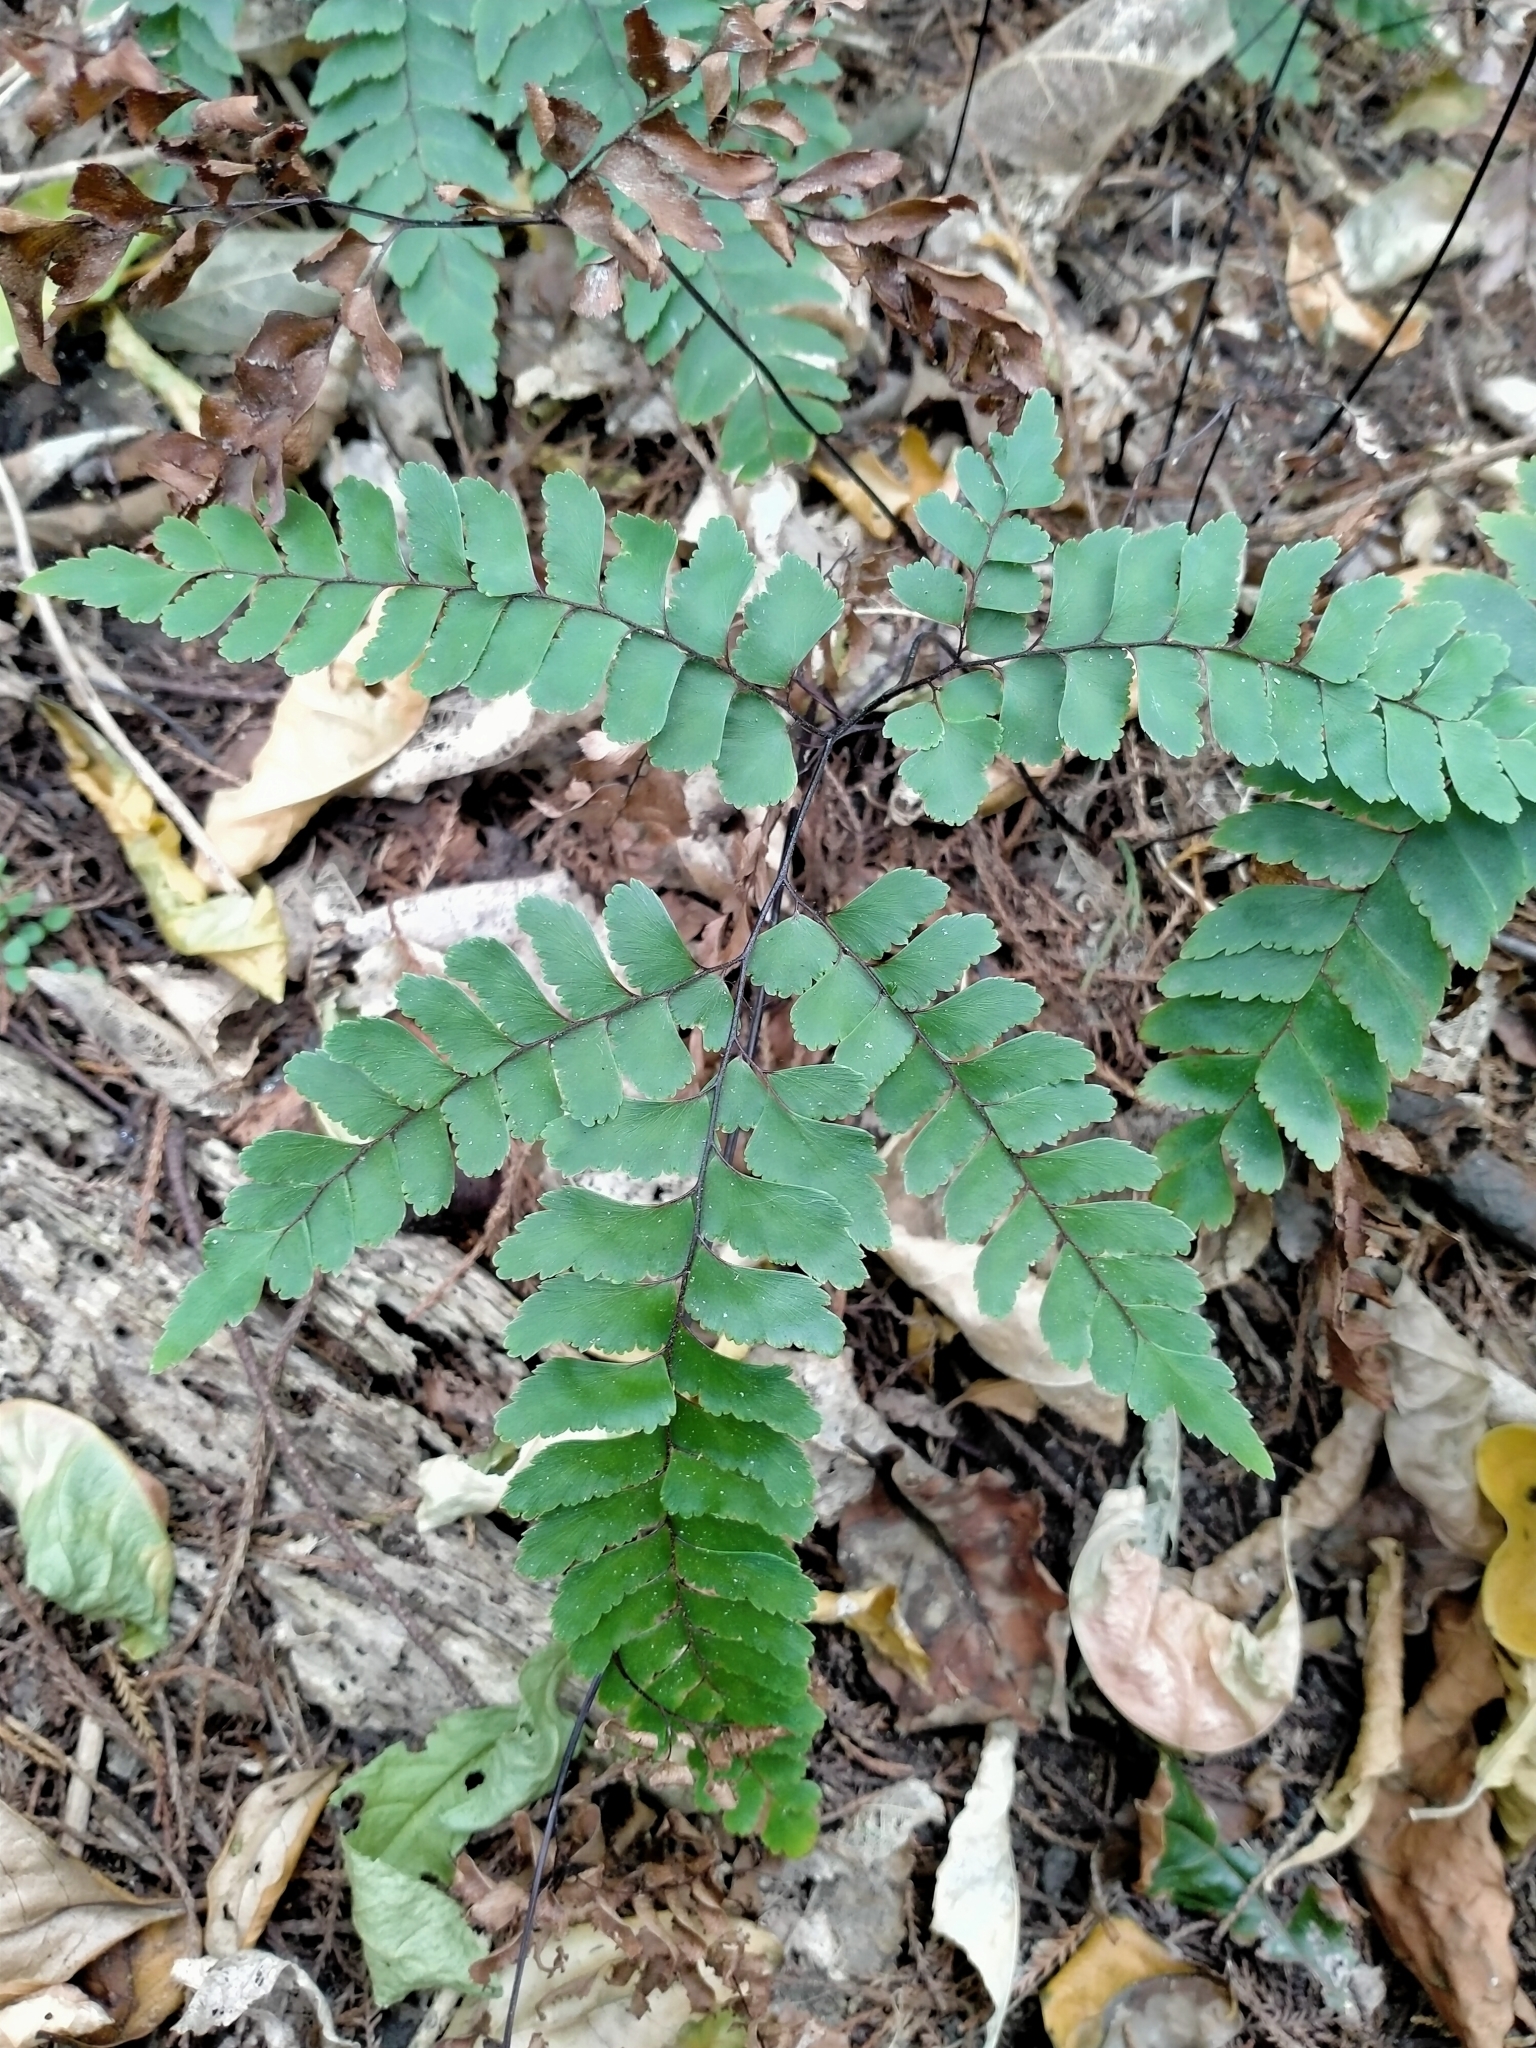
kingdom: Plantae
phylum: Tracheophyta
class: Polypodiopsida
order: Polypodiales
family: Pteridaceae
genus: Adiantum
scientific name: Adiantum cunninghamii
